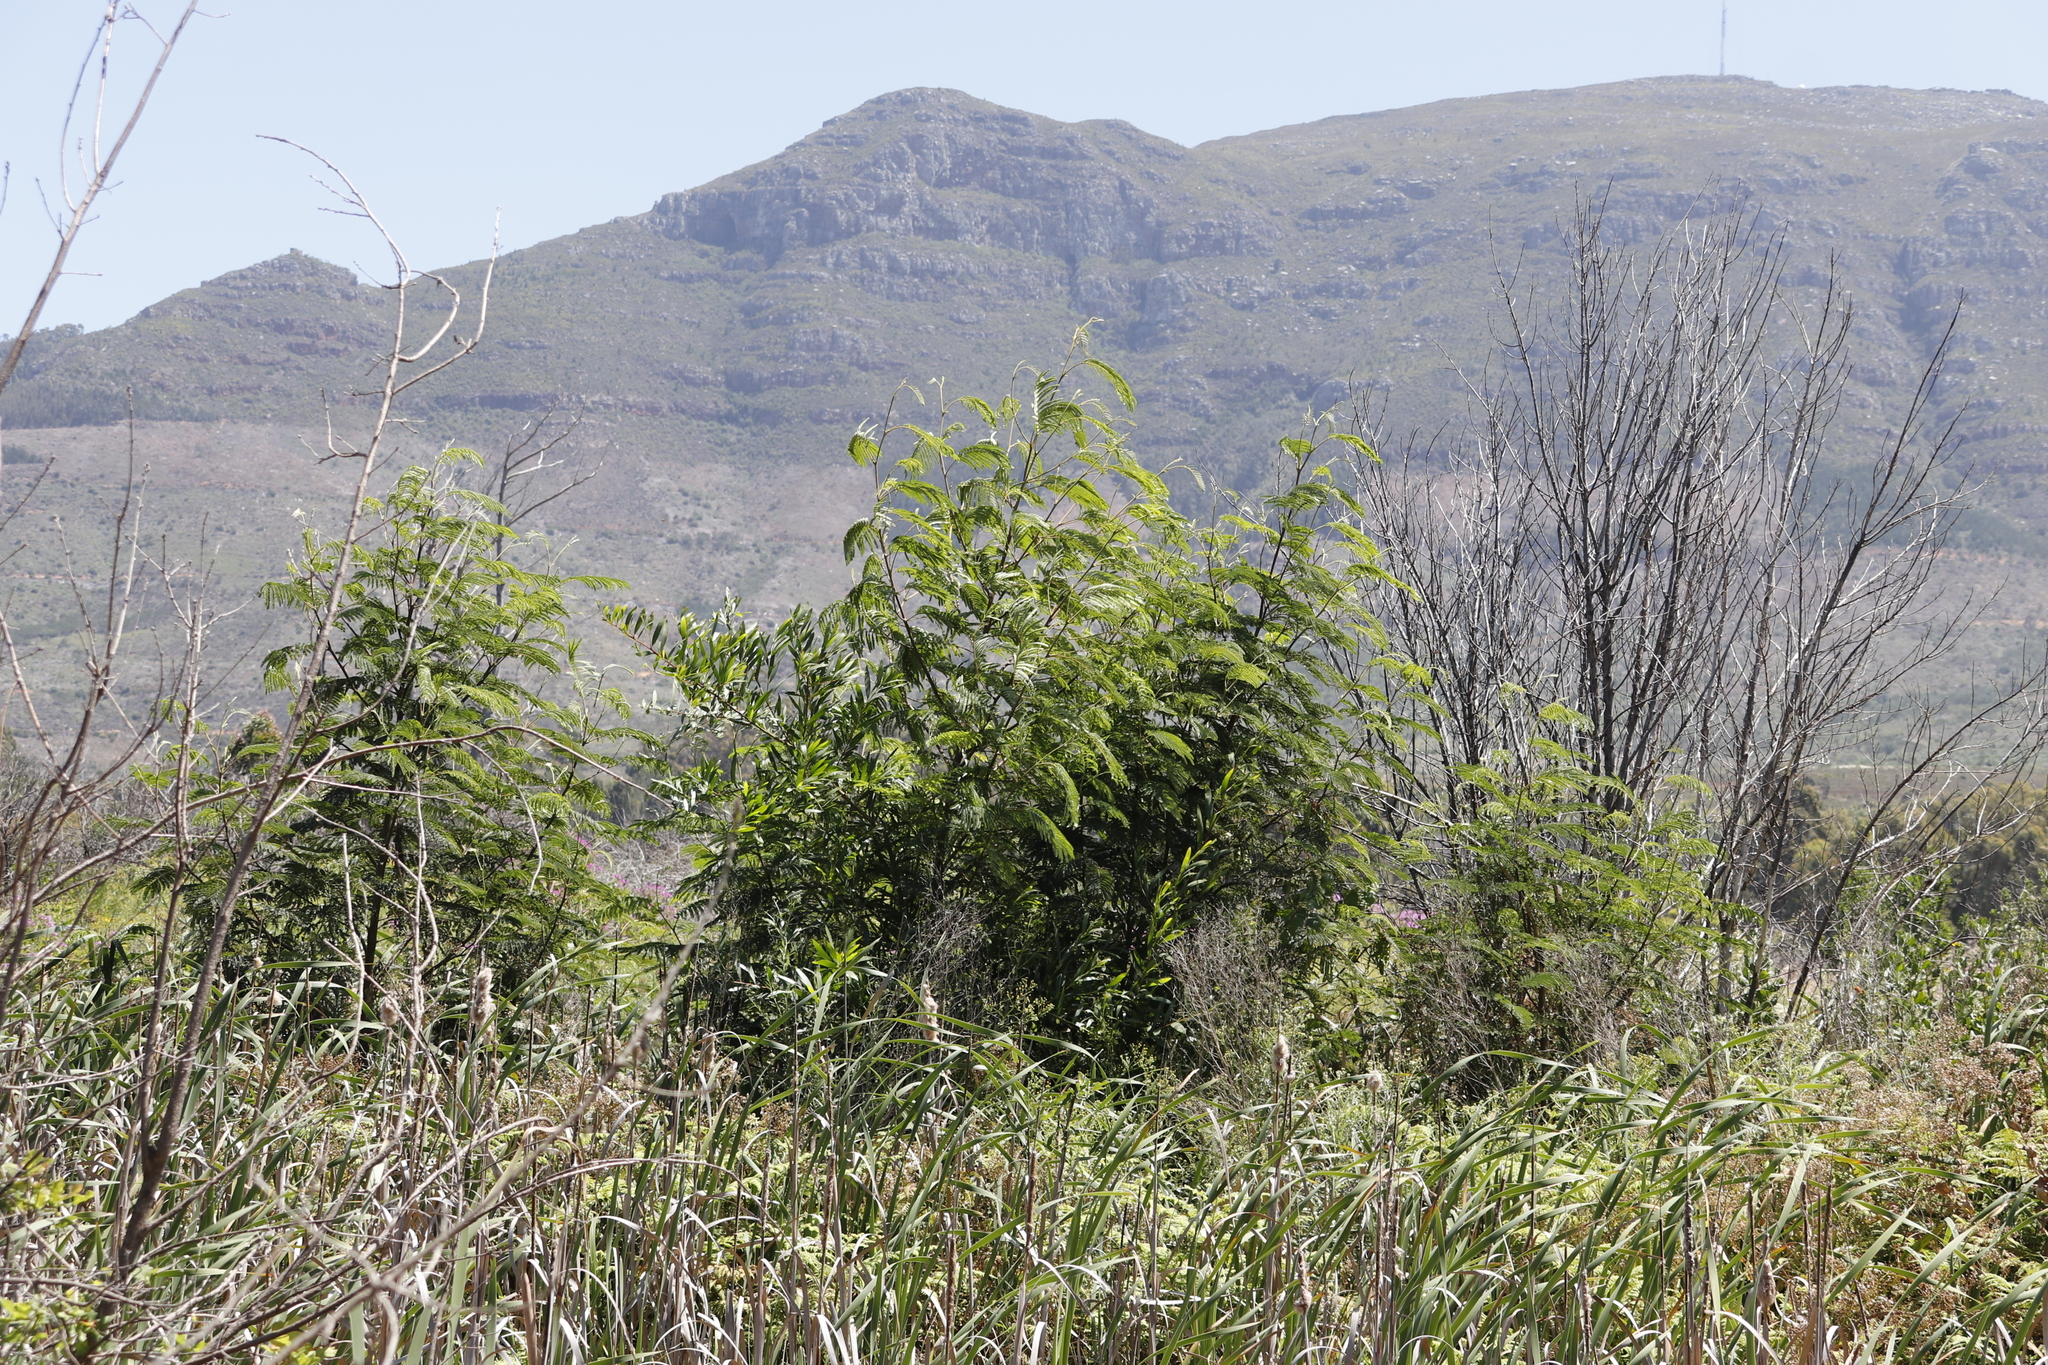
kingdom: Plantae
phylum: Tracheophyta
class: Magnoliopsida
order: Fabales
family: Fabaceae
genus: Paraserianthes
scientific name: Paraserianthes lophantha
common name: Plume albizia
